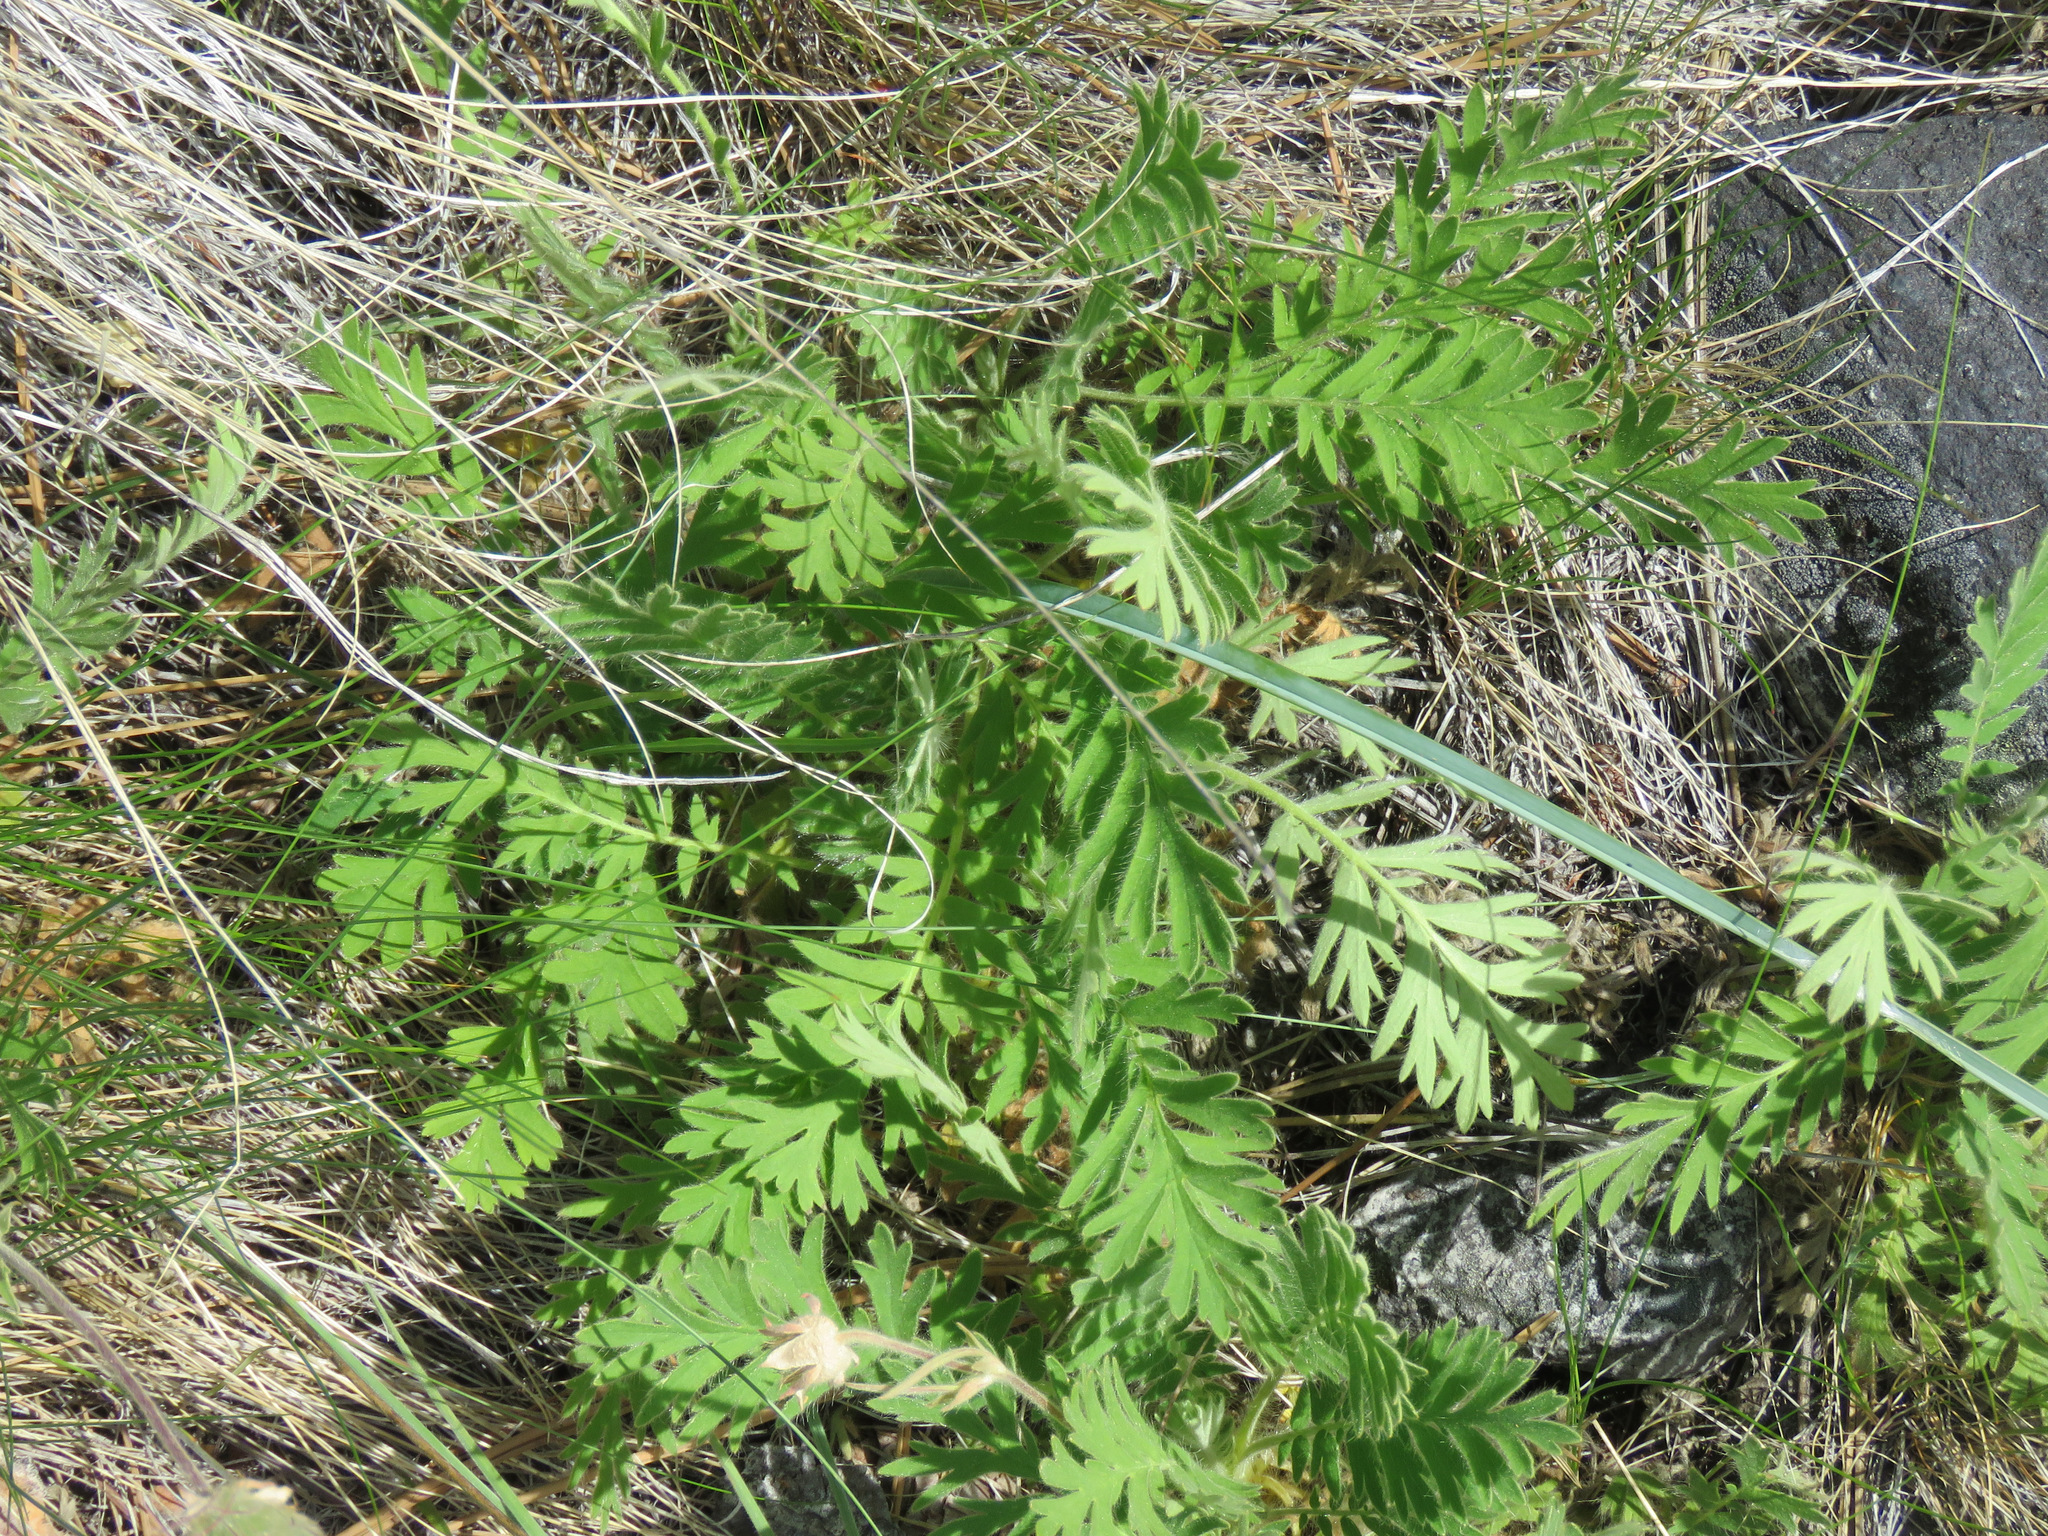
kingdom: Plantae
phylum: Tracheophyta
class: Magnoliopsida
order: Rosales
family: Rosaceae
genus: Geum
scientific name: Geum triflorum
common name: Old man's whiskers
